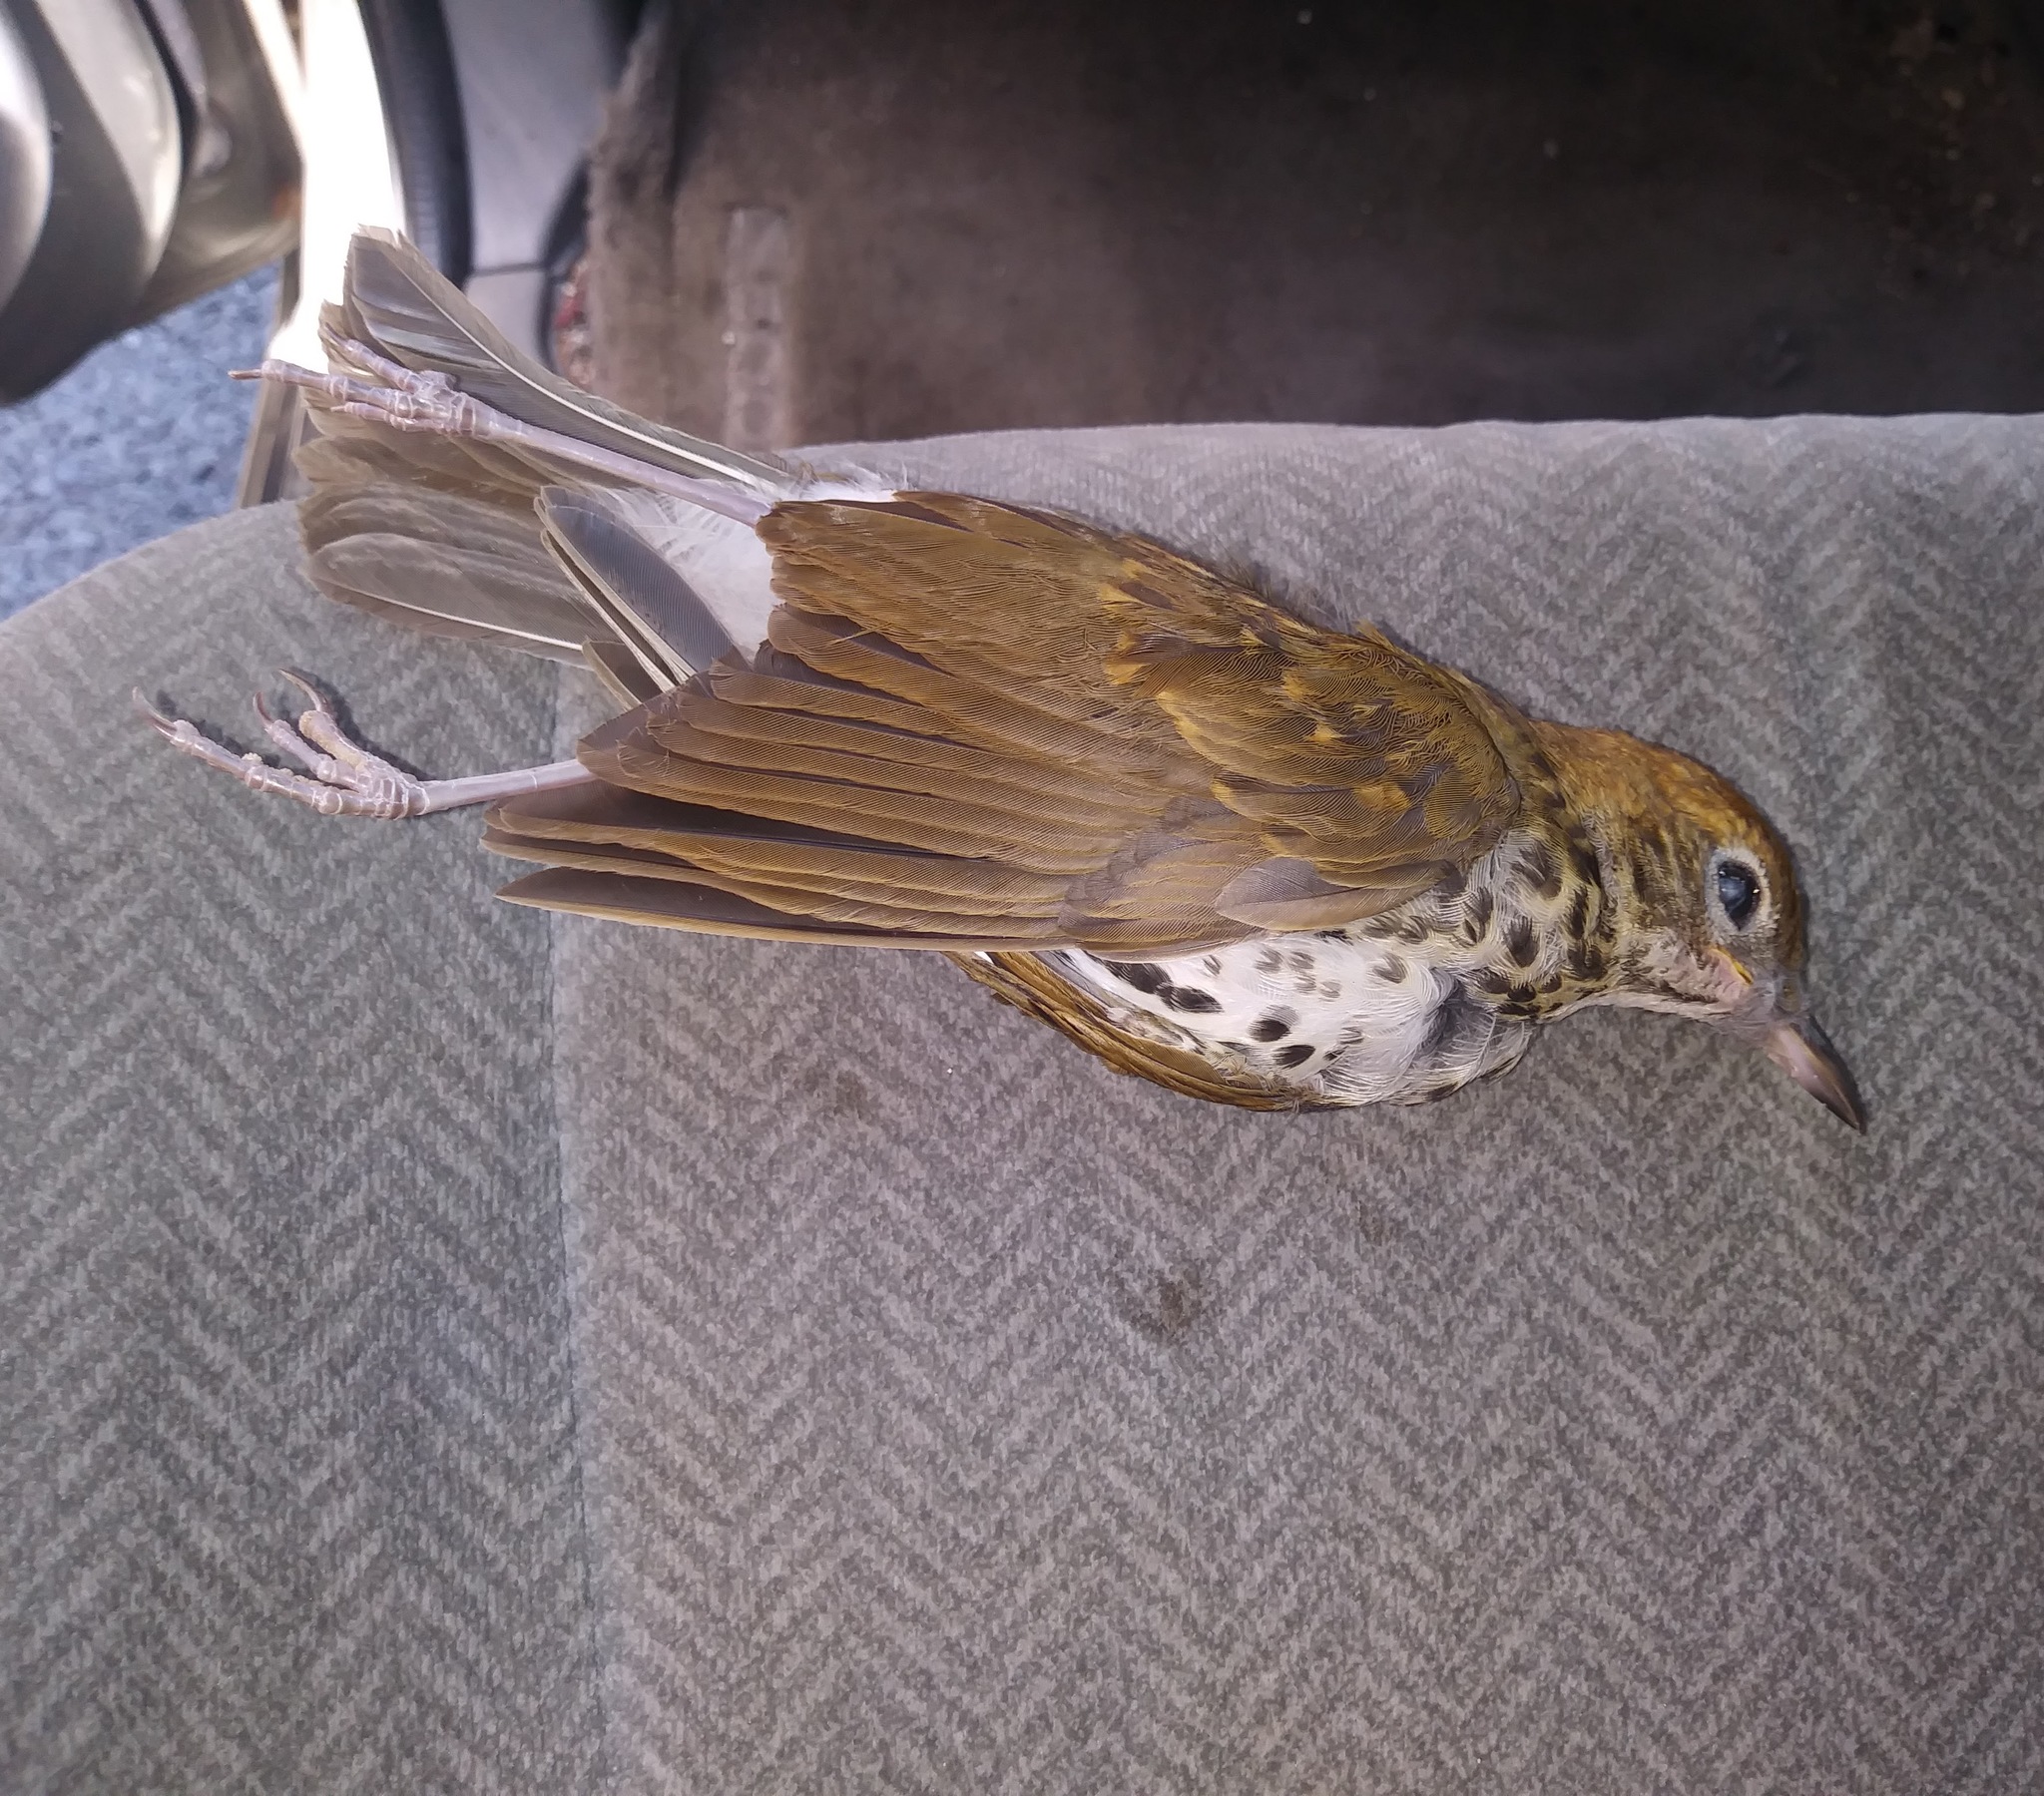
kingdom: Animalia
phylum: Chordata
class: Aves
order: Passeriformes
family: Turdidae
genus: Hylocichla
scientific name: Hylocichla mustelina
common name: Wood thrush
